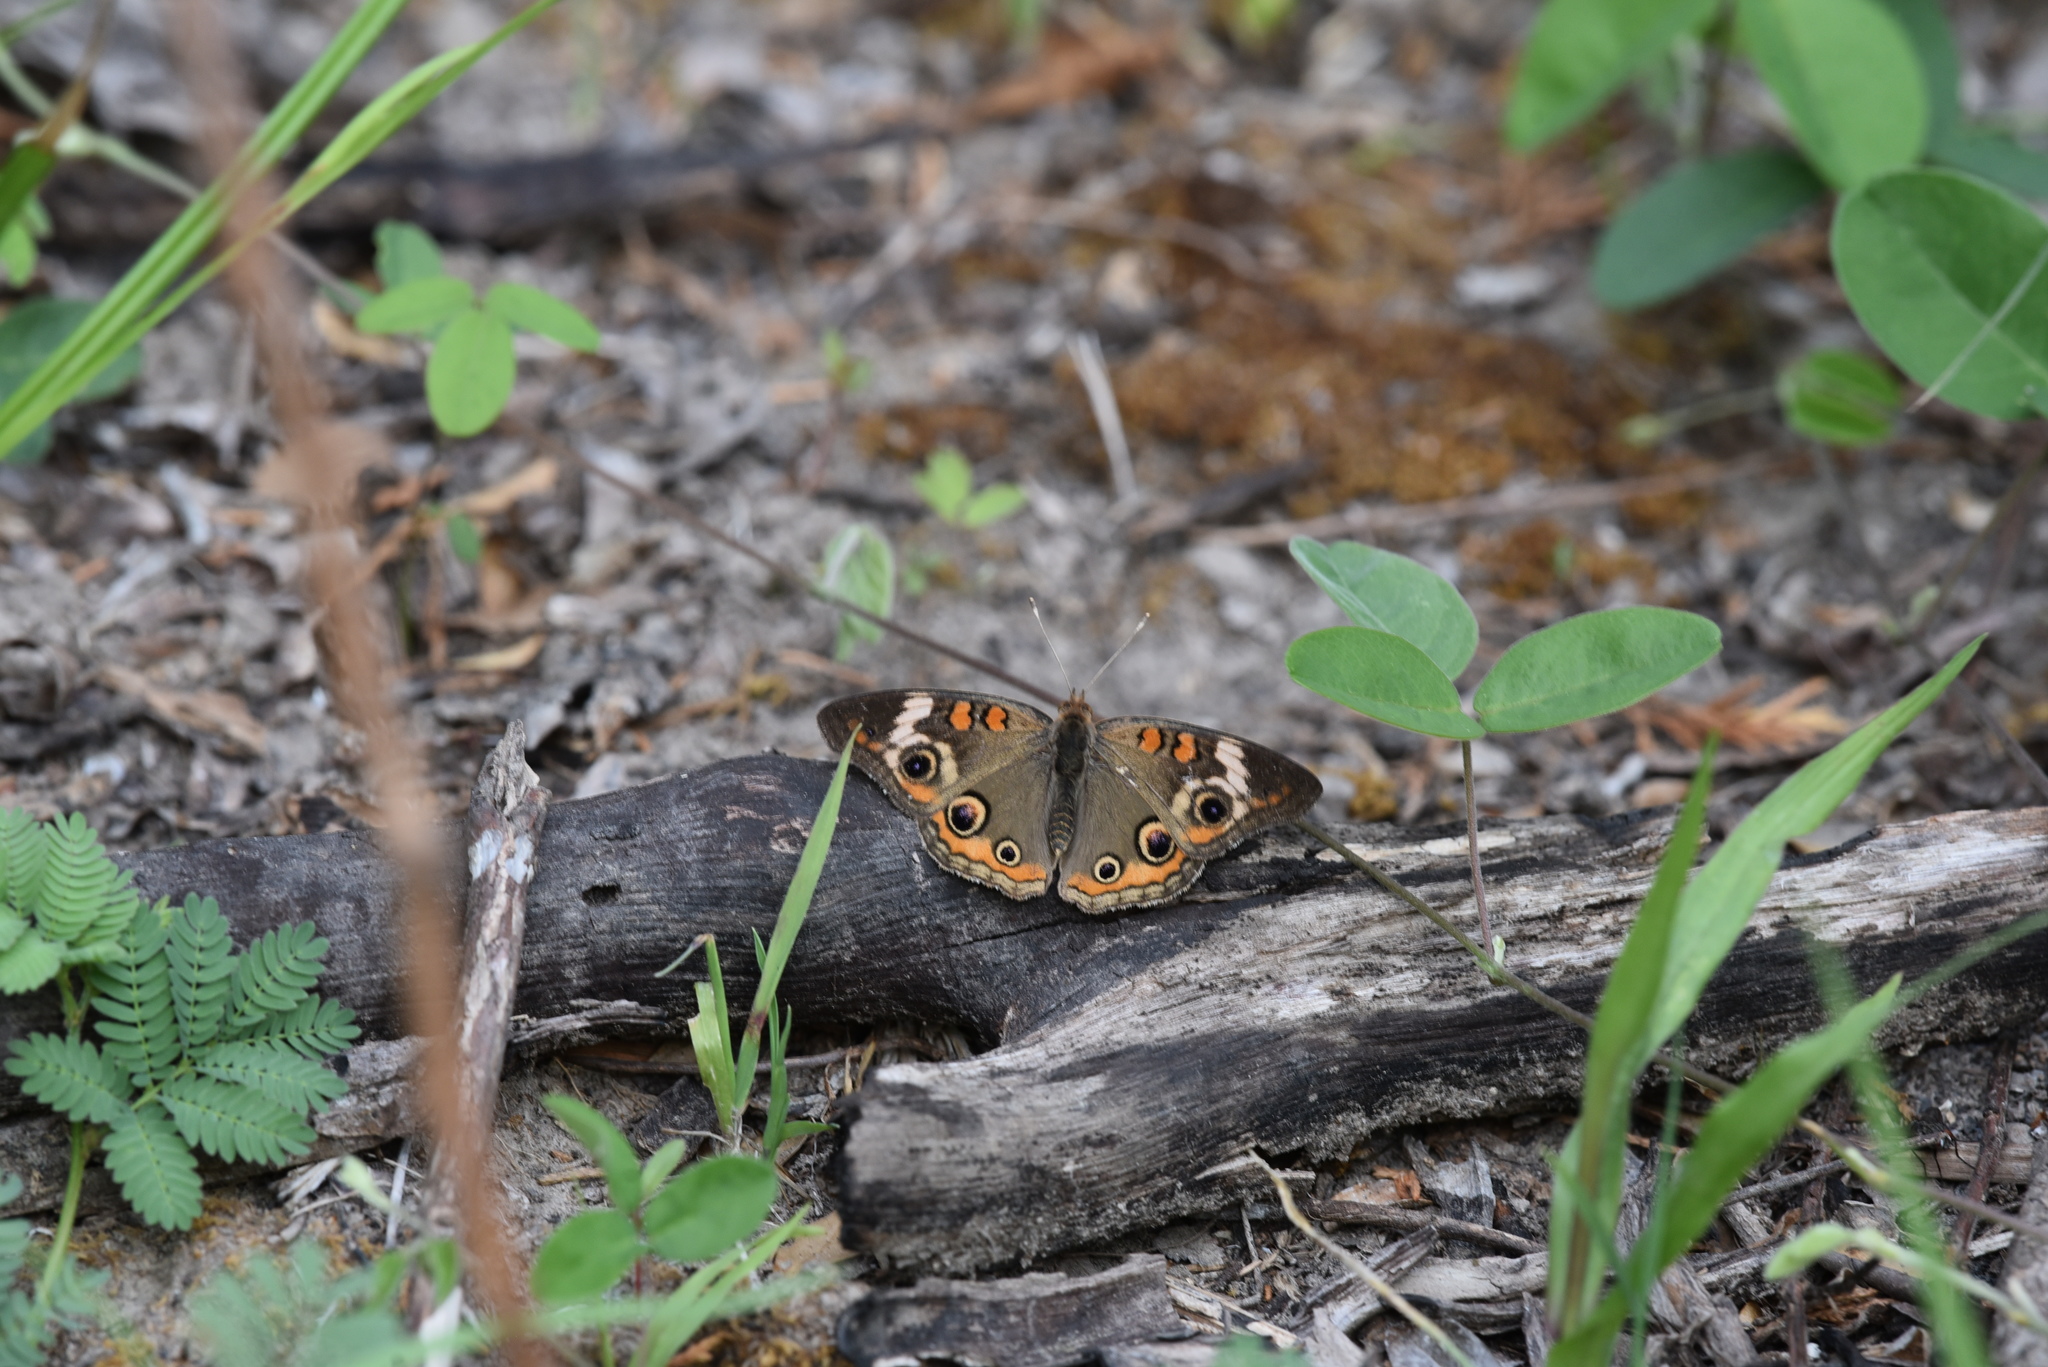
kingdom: Animalia
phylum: Arthropoda
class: Insecta
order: Lepidoptera
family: Nymphalidae
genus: Junonia
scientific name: Junonia coenia
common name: Common buckeye
